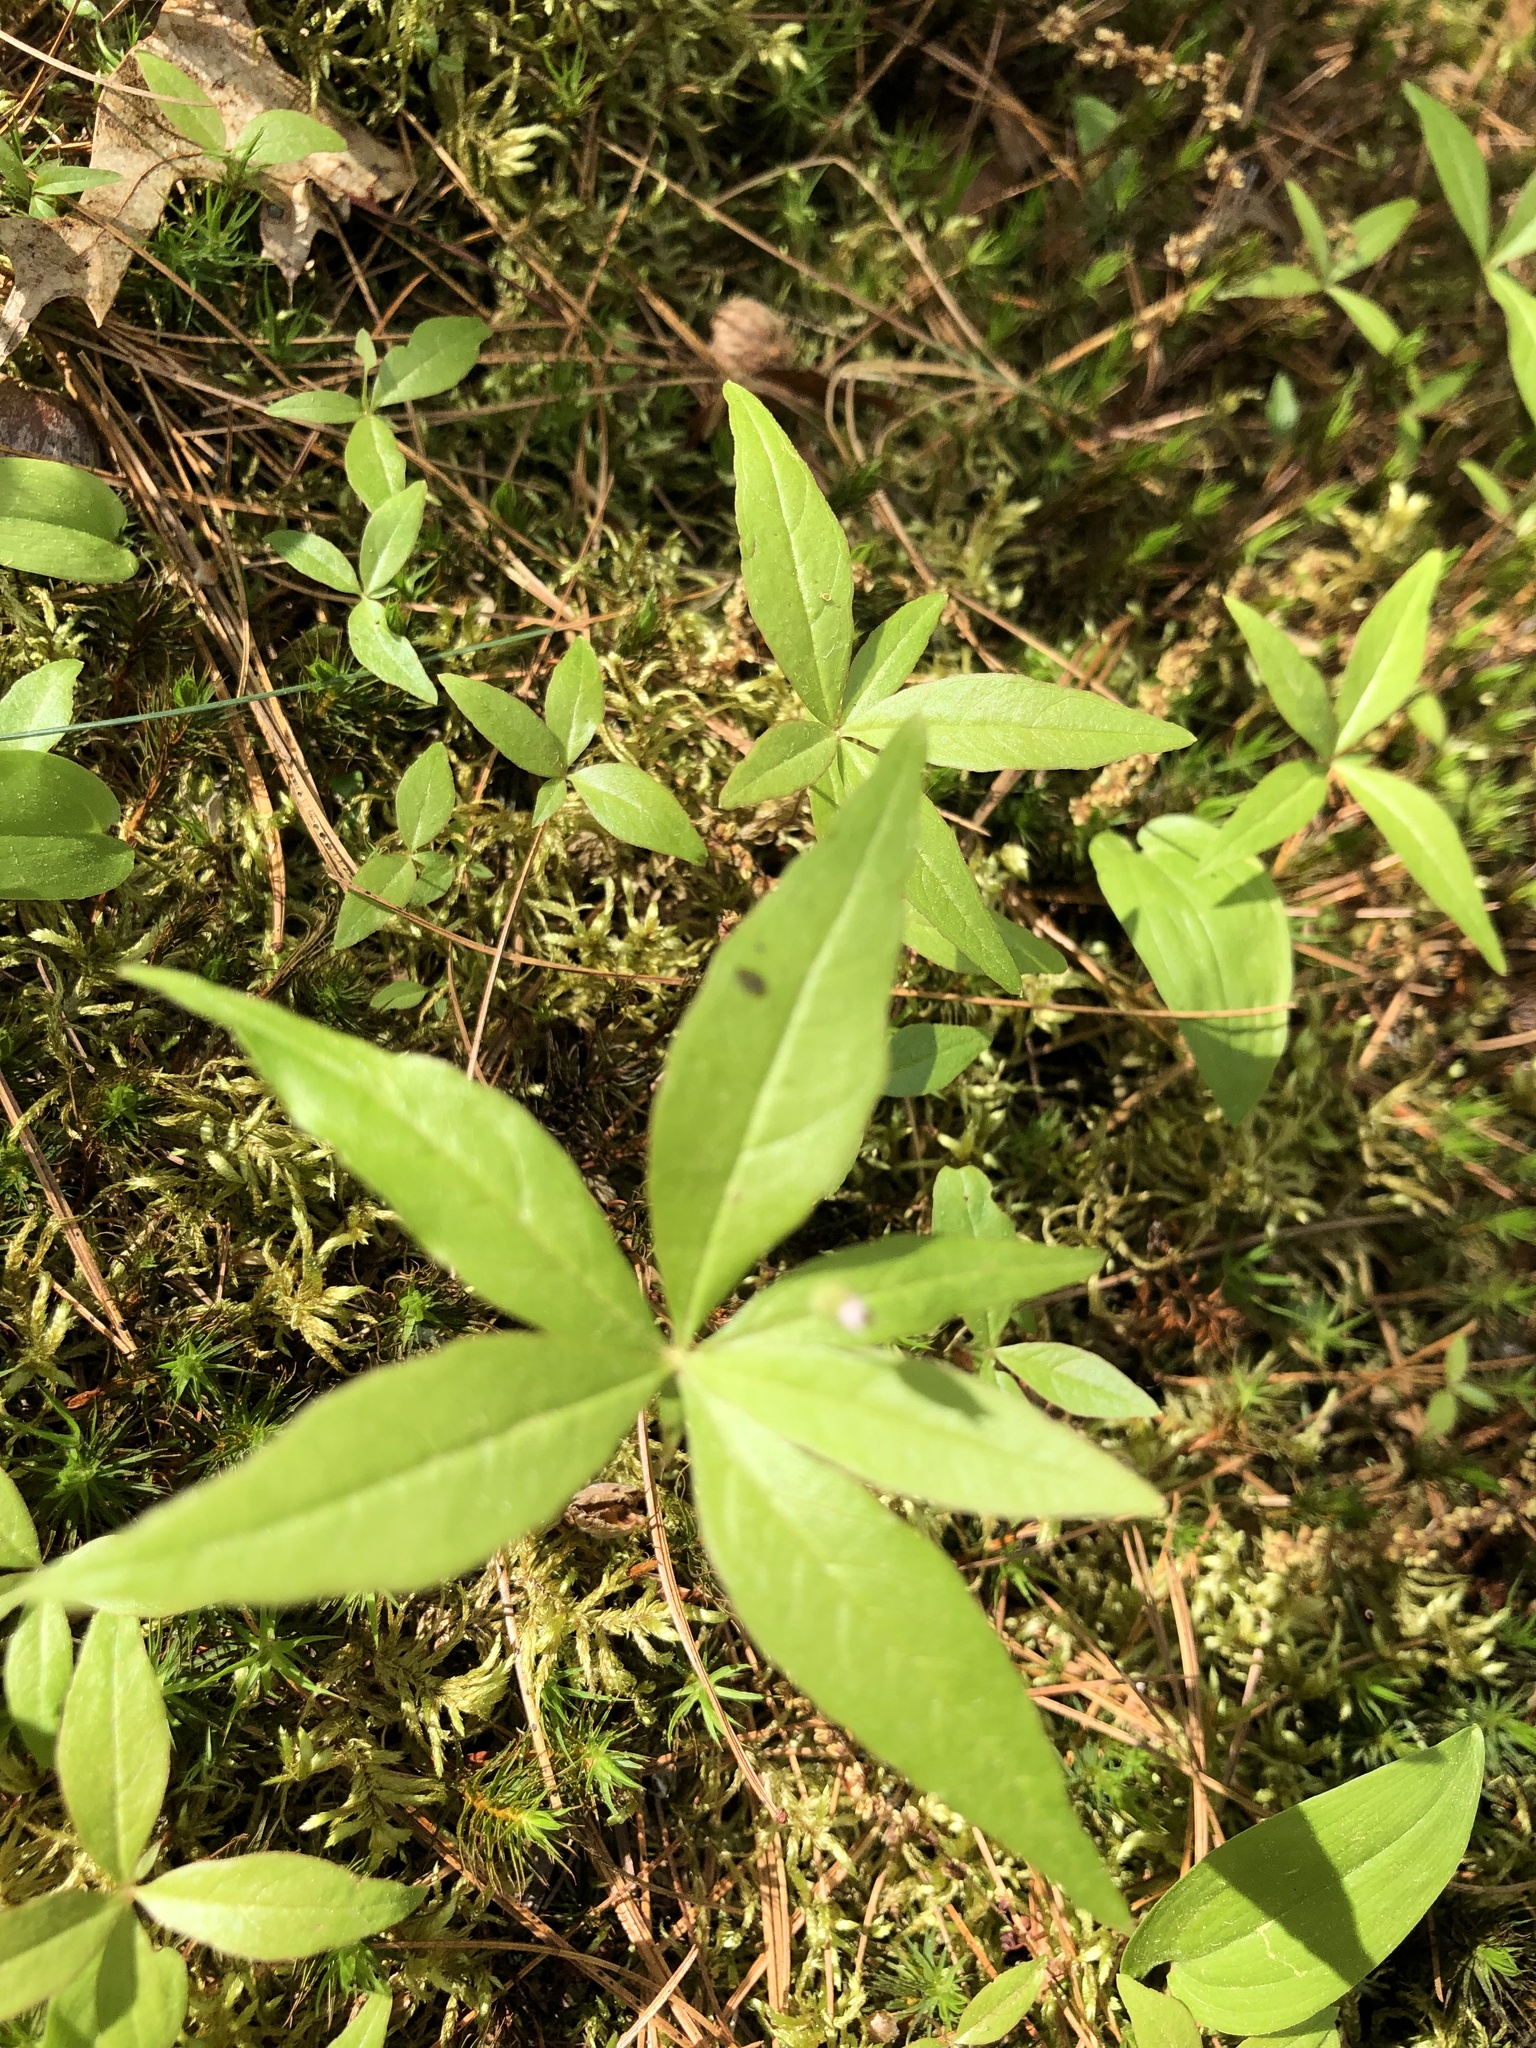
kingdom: Plantae
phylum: Tracheophyta
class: Magnoliopsida
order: Ericales
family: Primulaceae
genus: Lysimachia
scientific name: Lysimachia borealis
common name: American starflower
